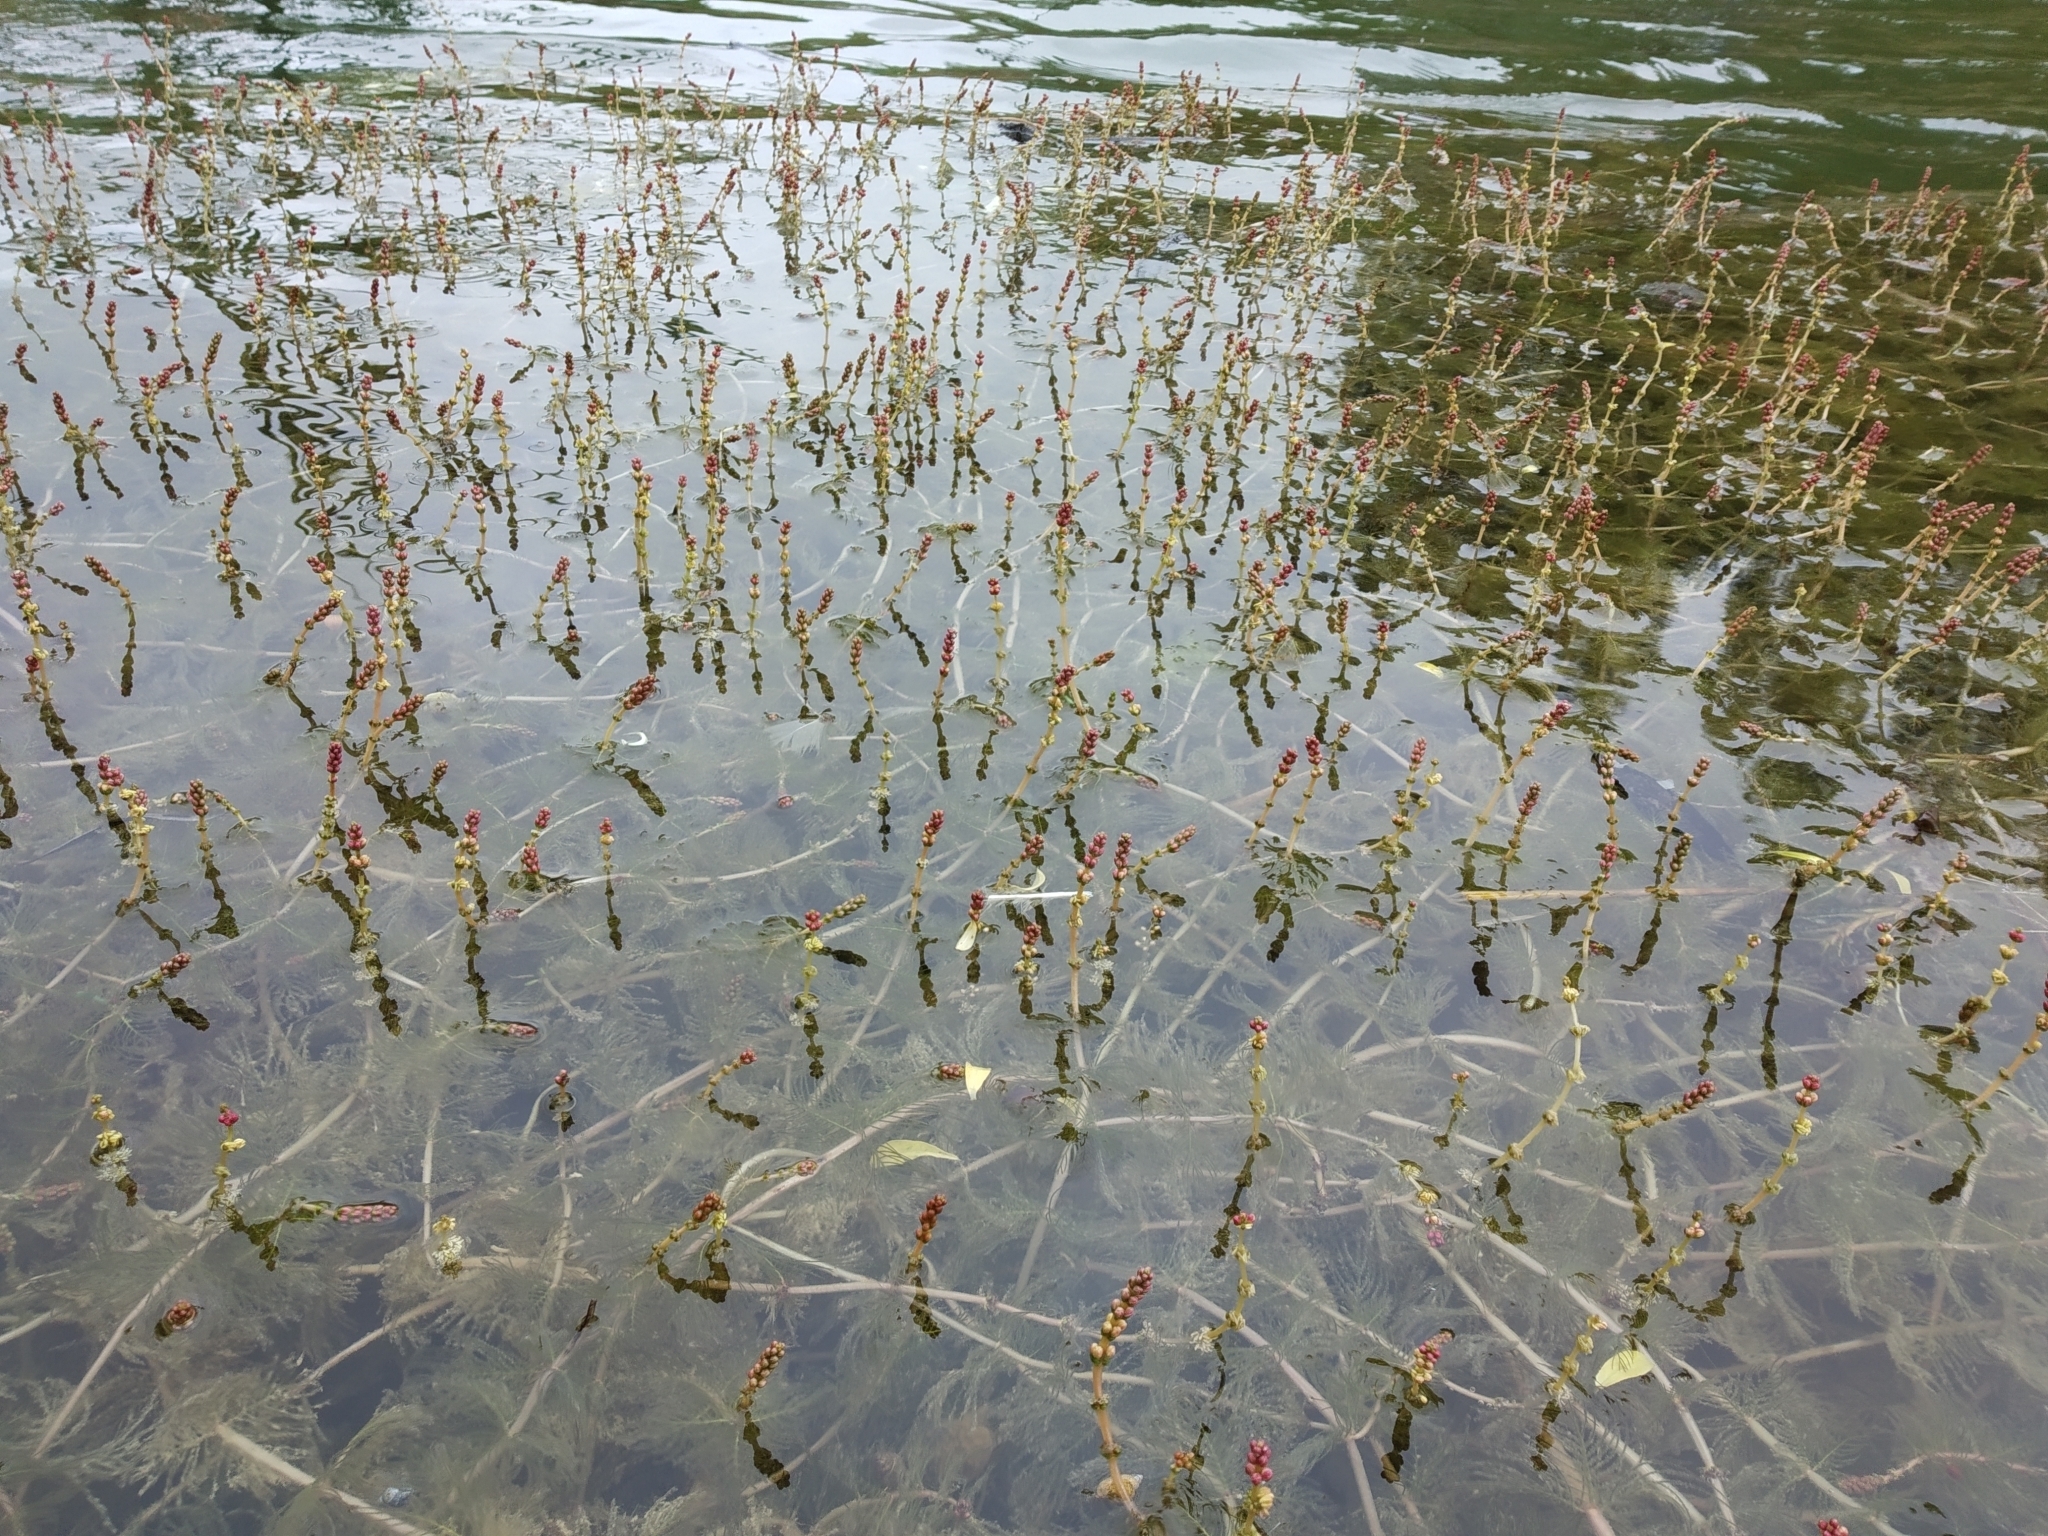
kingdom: Plantae
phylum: Tracheophyta
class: Magnoliopsida
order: Saxifragales
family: Haloragaceae
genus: Myriophyllum
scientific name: Myriophyllum spicatum
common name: Spiked water-milfoil
